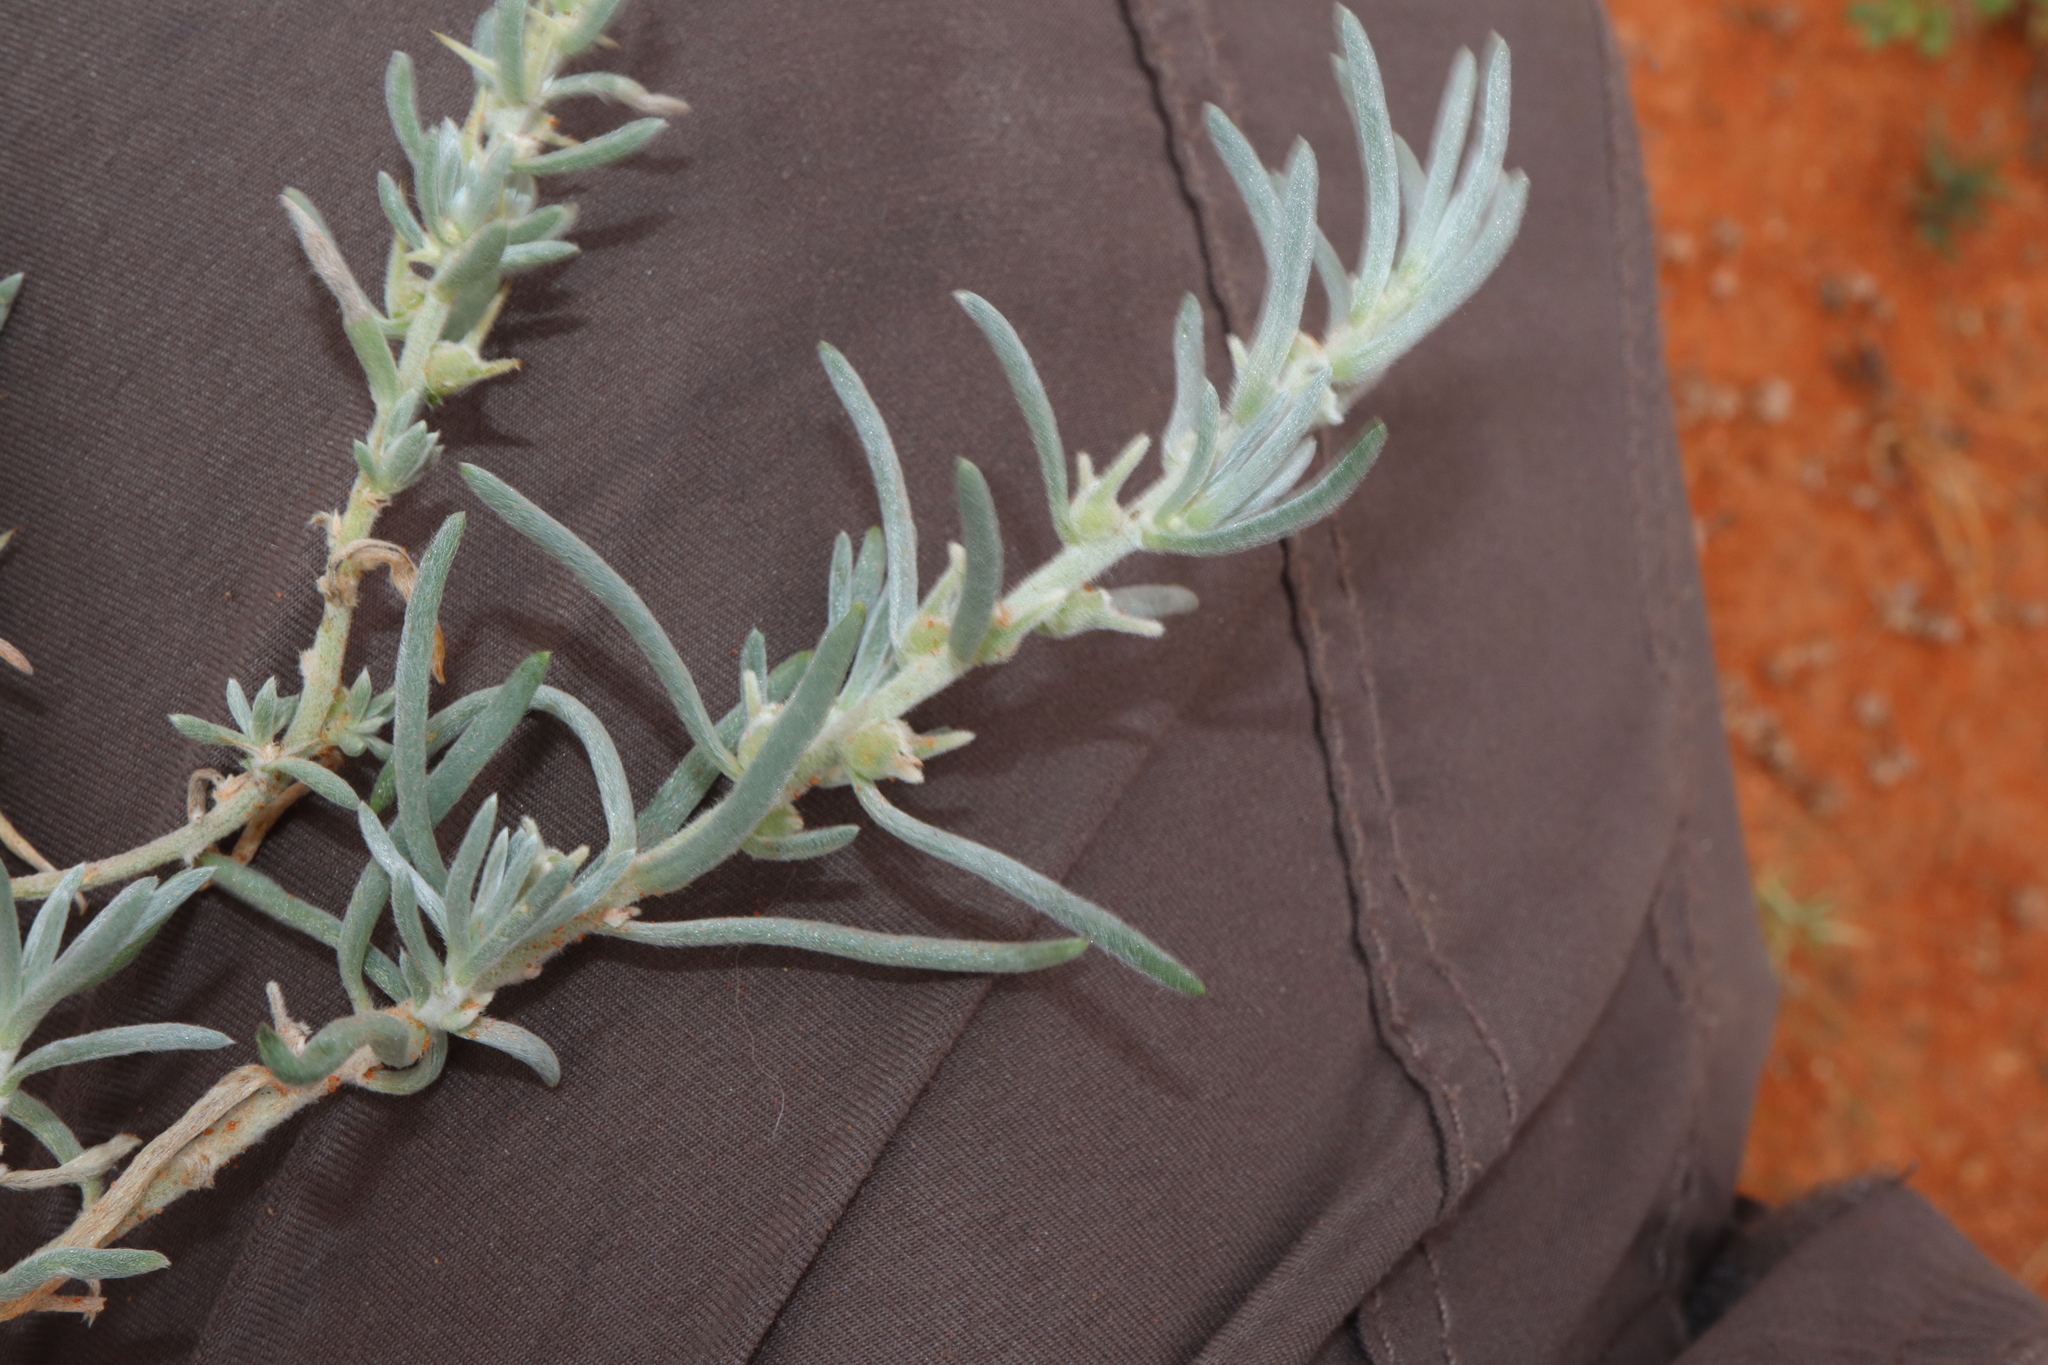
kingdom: Plantae
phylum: Tracheophyta
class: Magnoliopsida
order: Caryophyllales
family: Amaranthaceae
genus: Sclerolaena
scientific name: Sclerolaena diacantha
